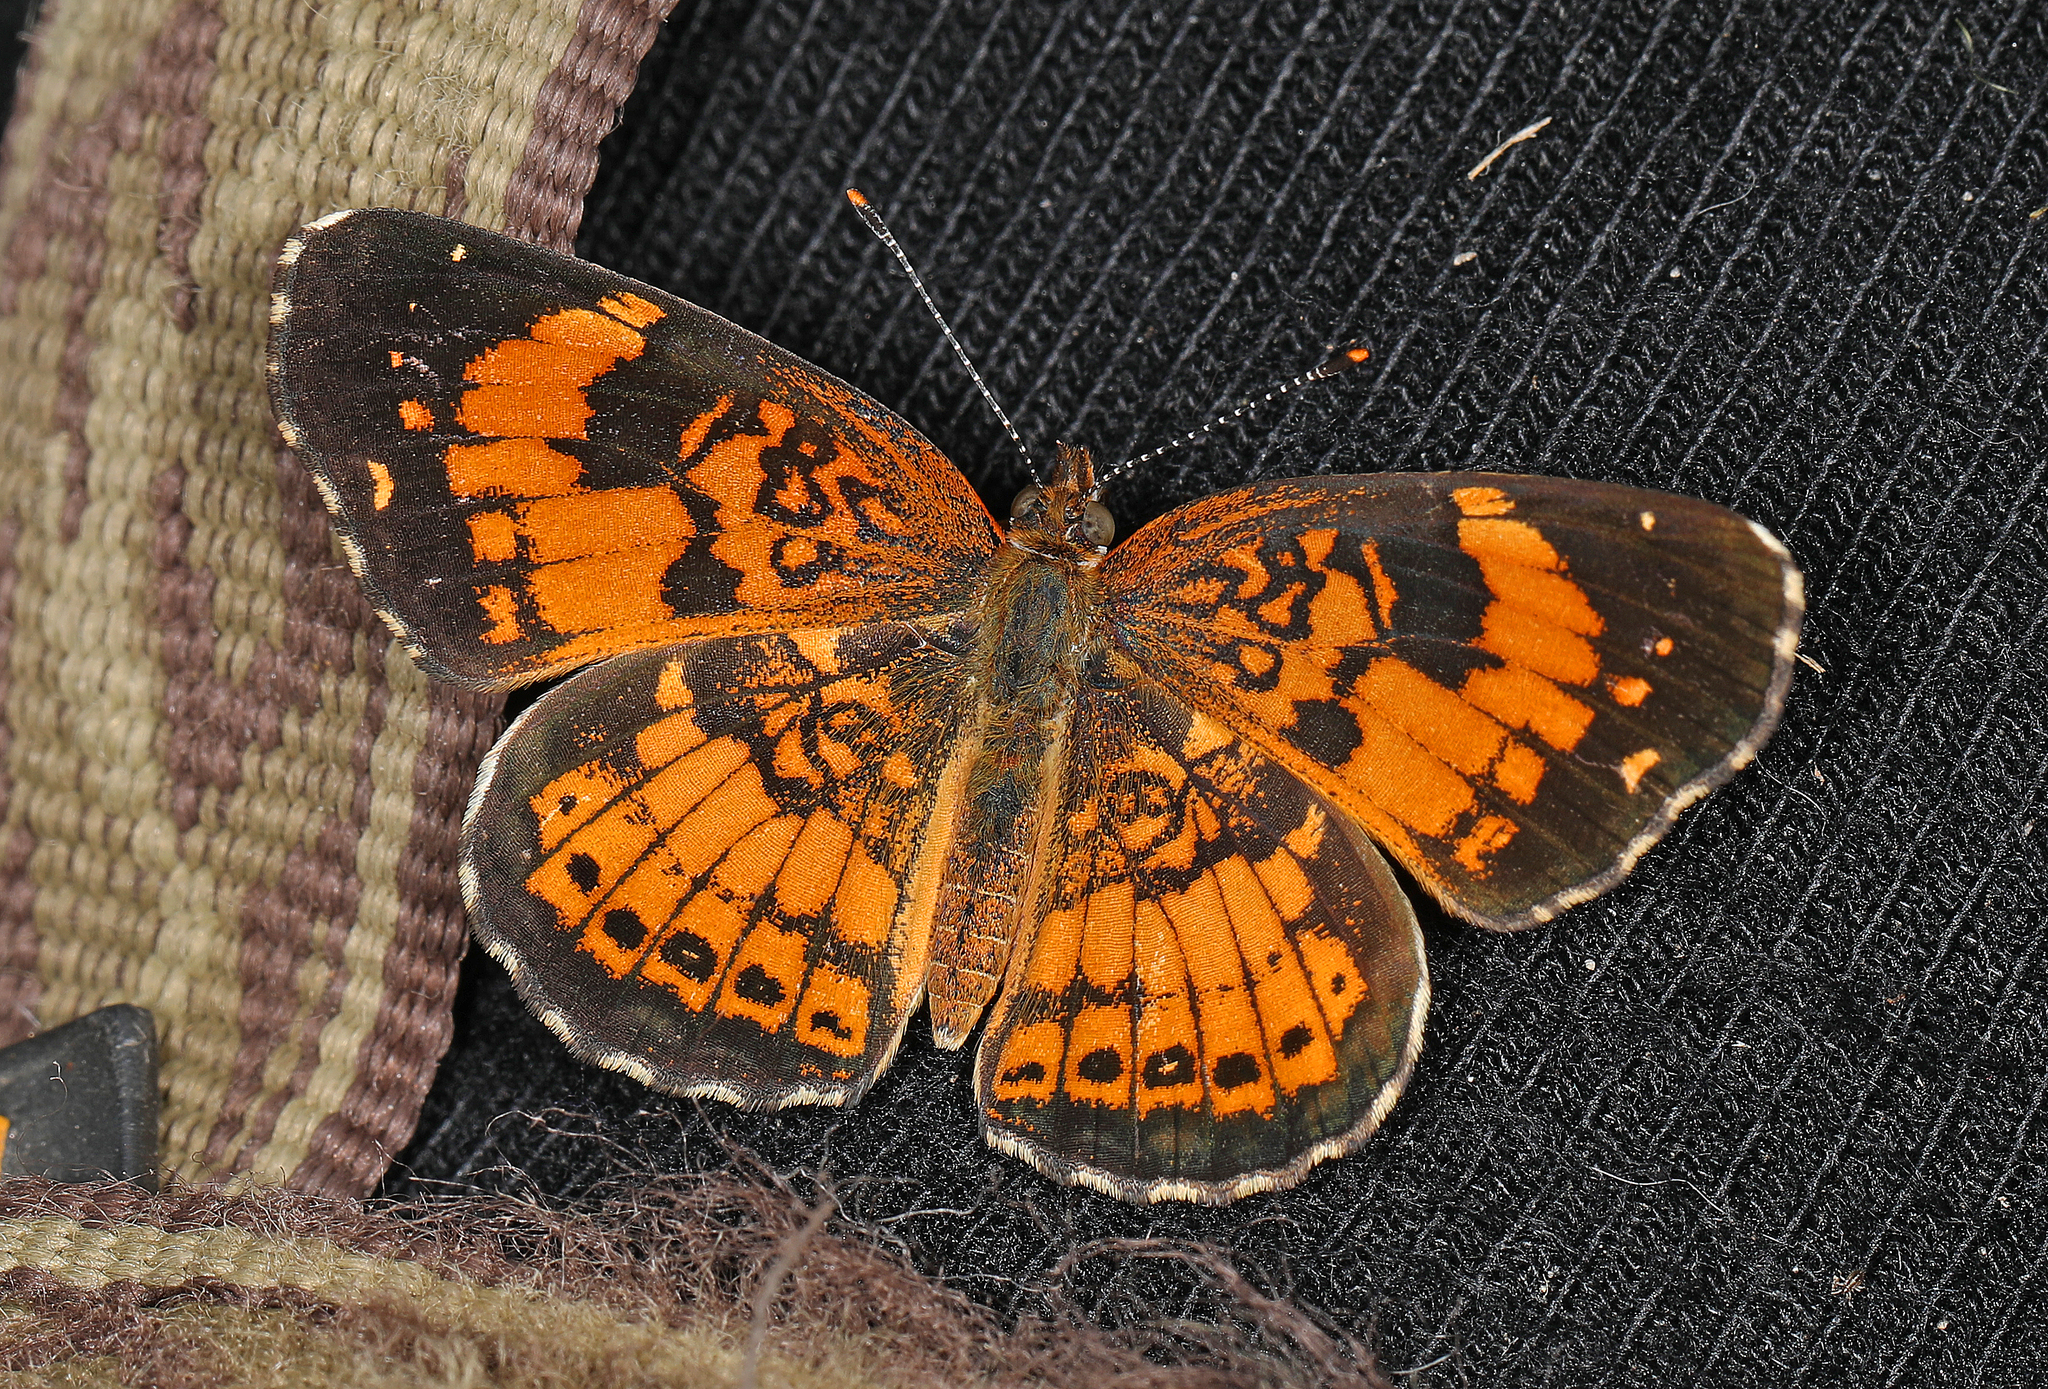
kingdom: Animalia
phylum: Arthropoda
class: Insecta
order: Lepidoptera
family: Nymphalidae
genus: Chlosyne
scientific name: Chlosyne nycteis
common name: Silvery checkerspot
